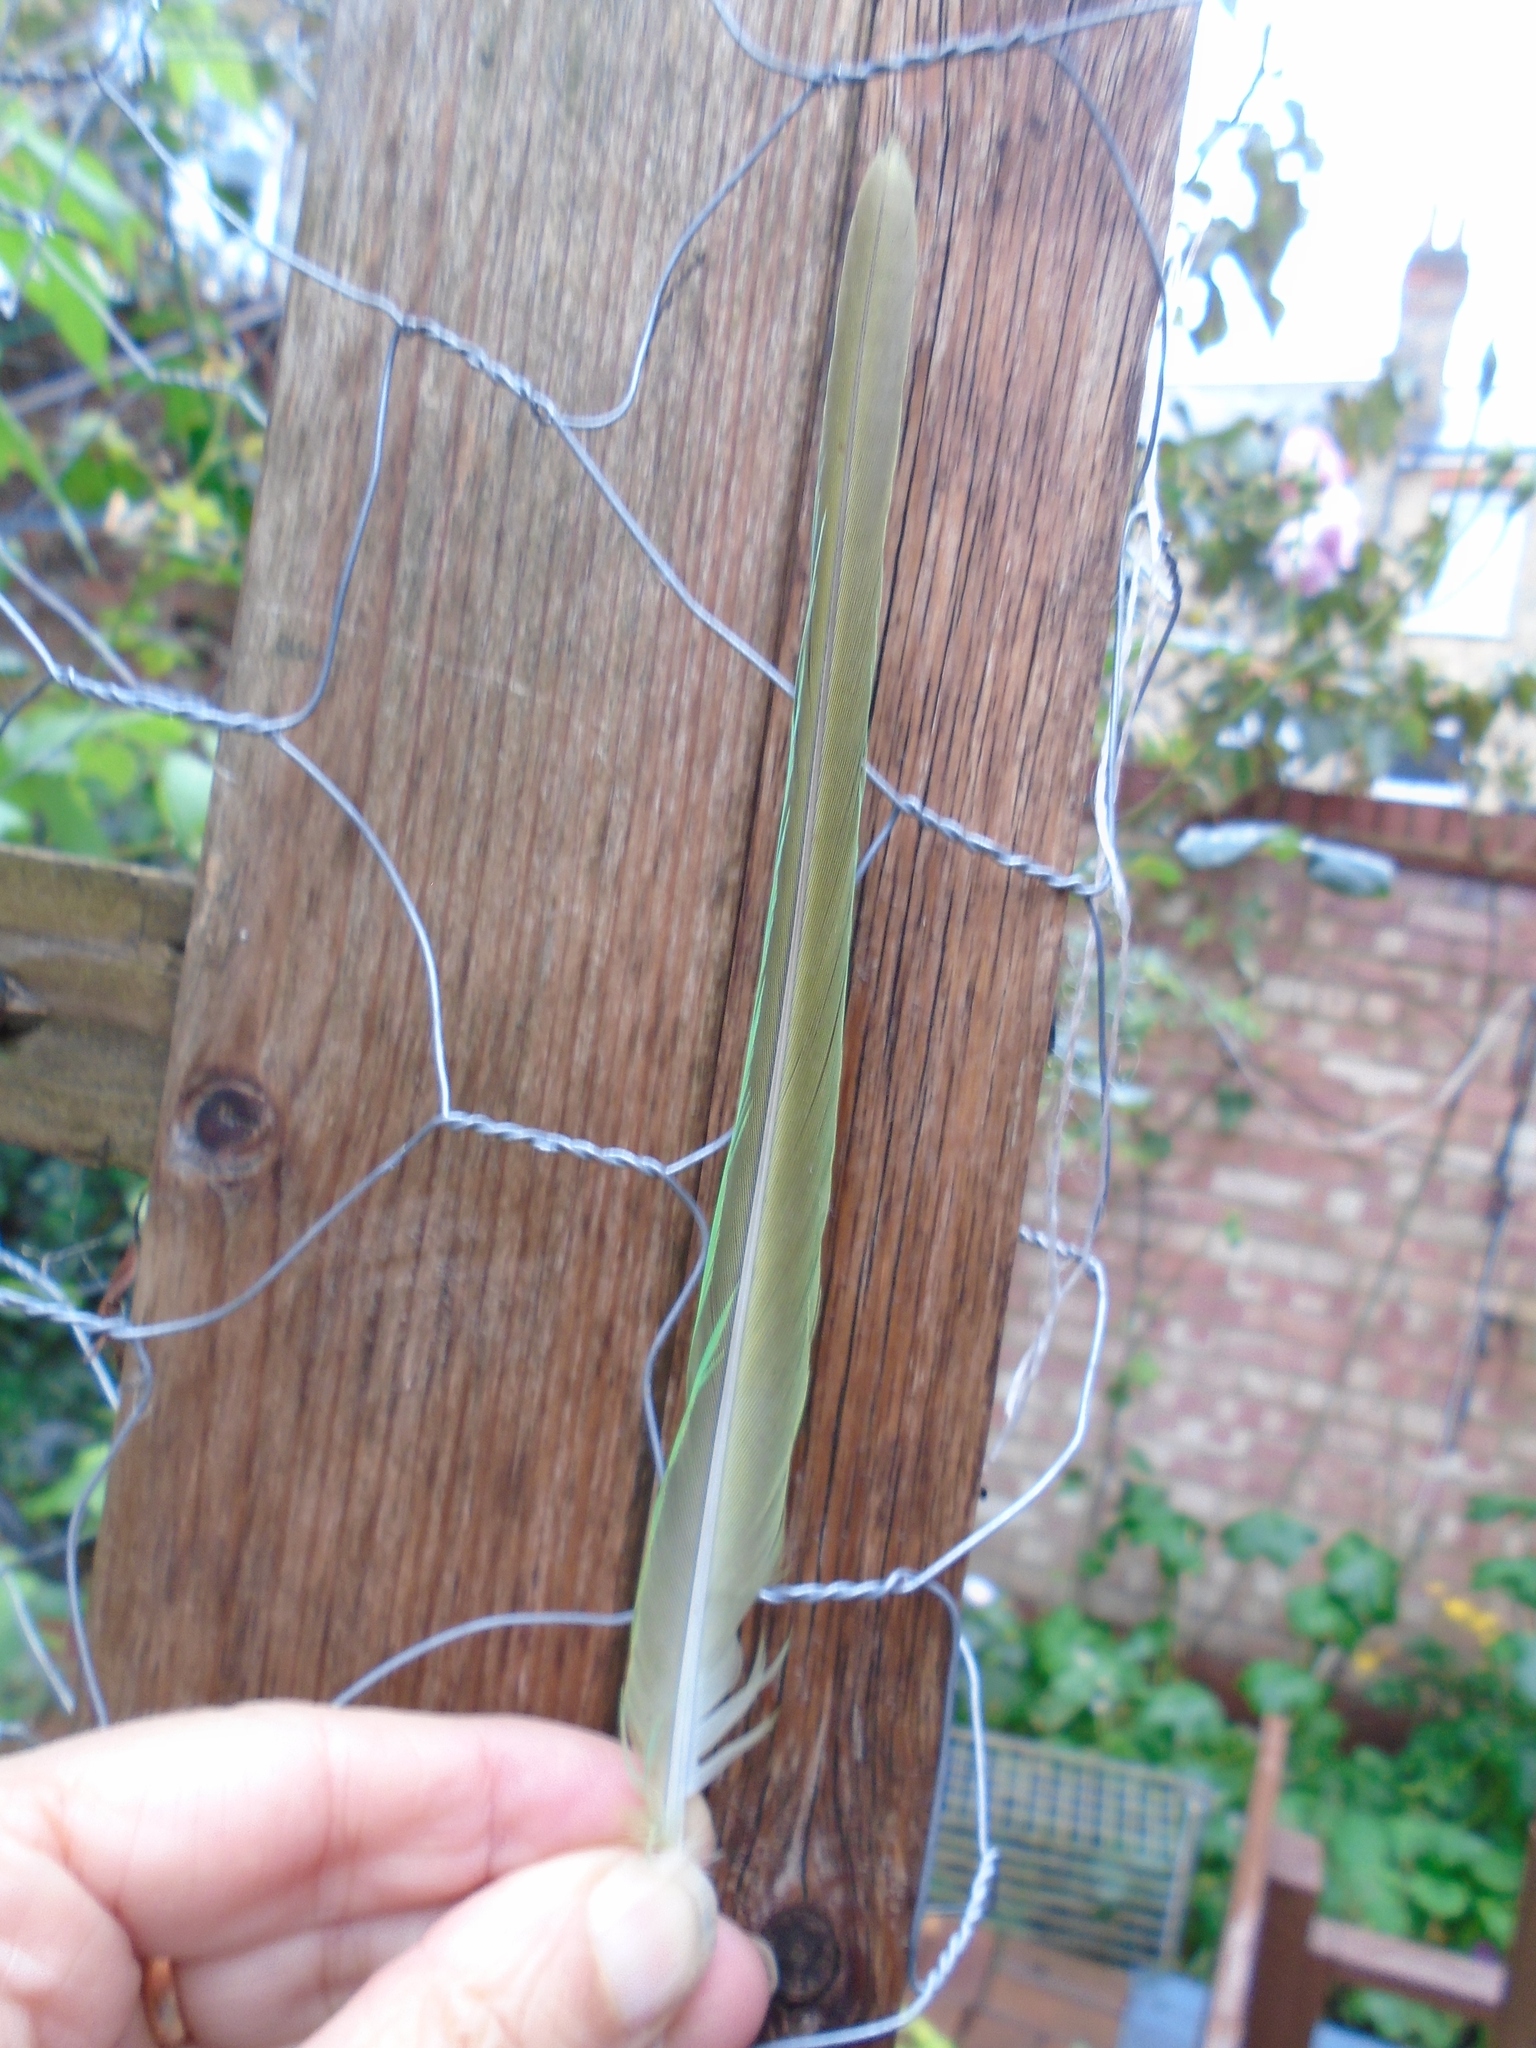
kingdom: Animalia
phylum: Chordata
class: Aves
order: Psittaciformes
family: Psittacidae
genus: Psittacula
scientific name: Psittacula krameri
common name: Rose-ringed parakeet
